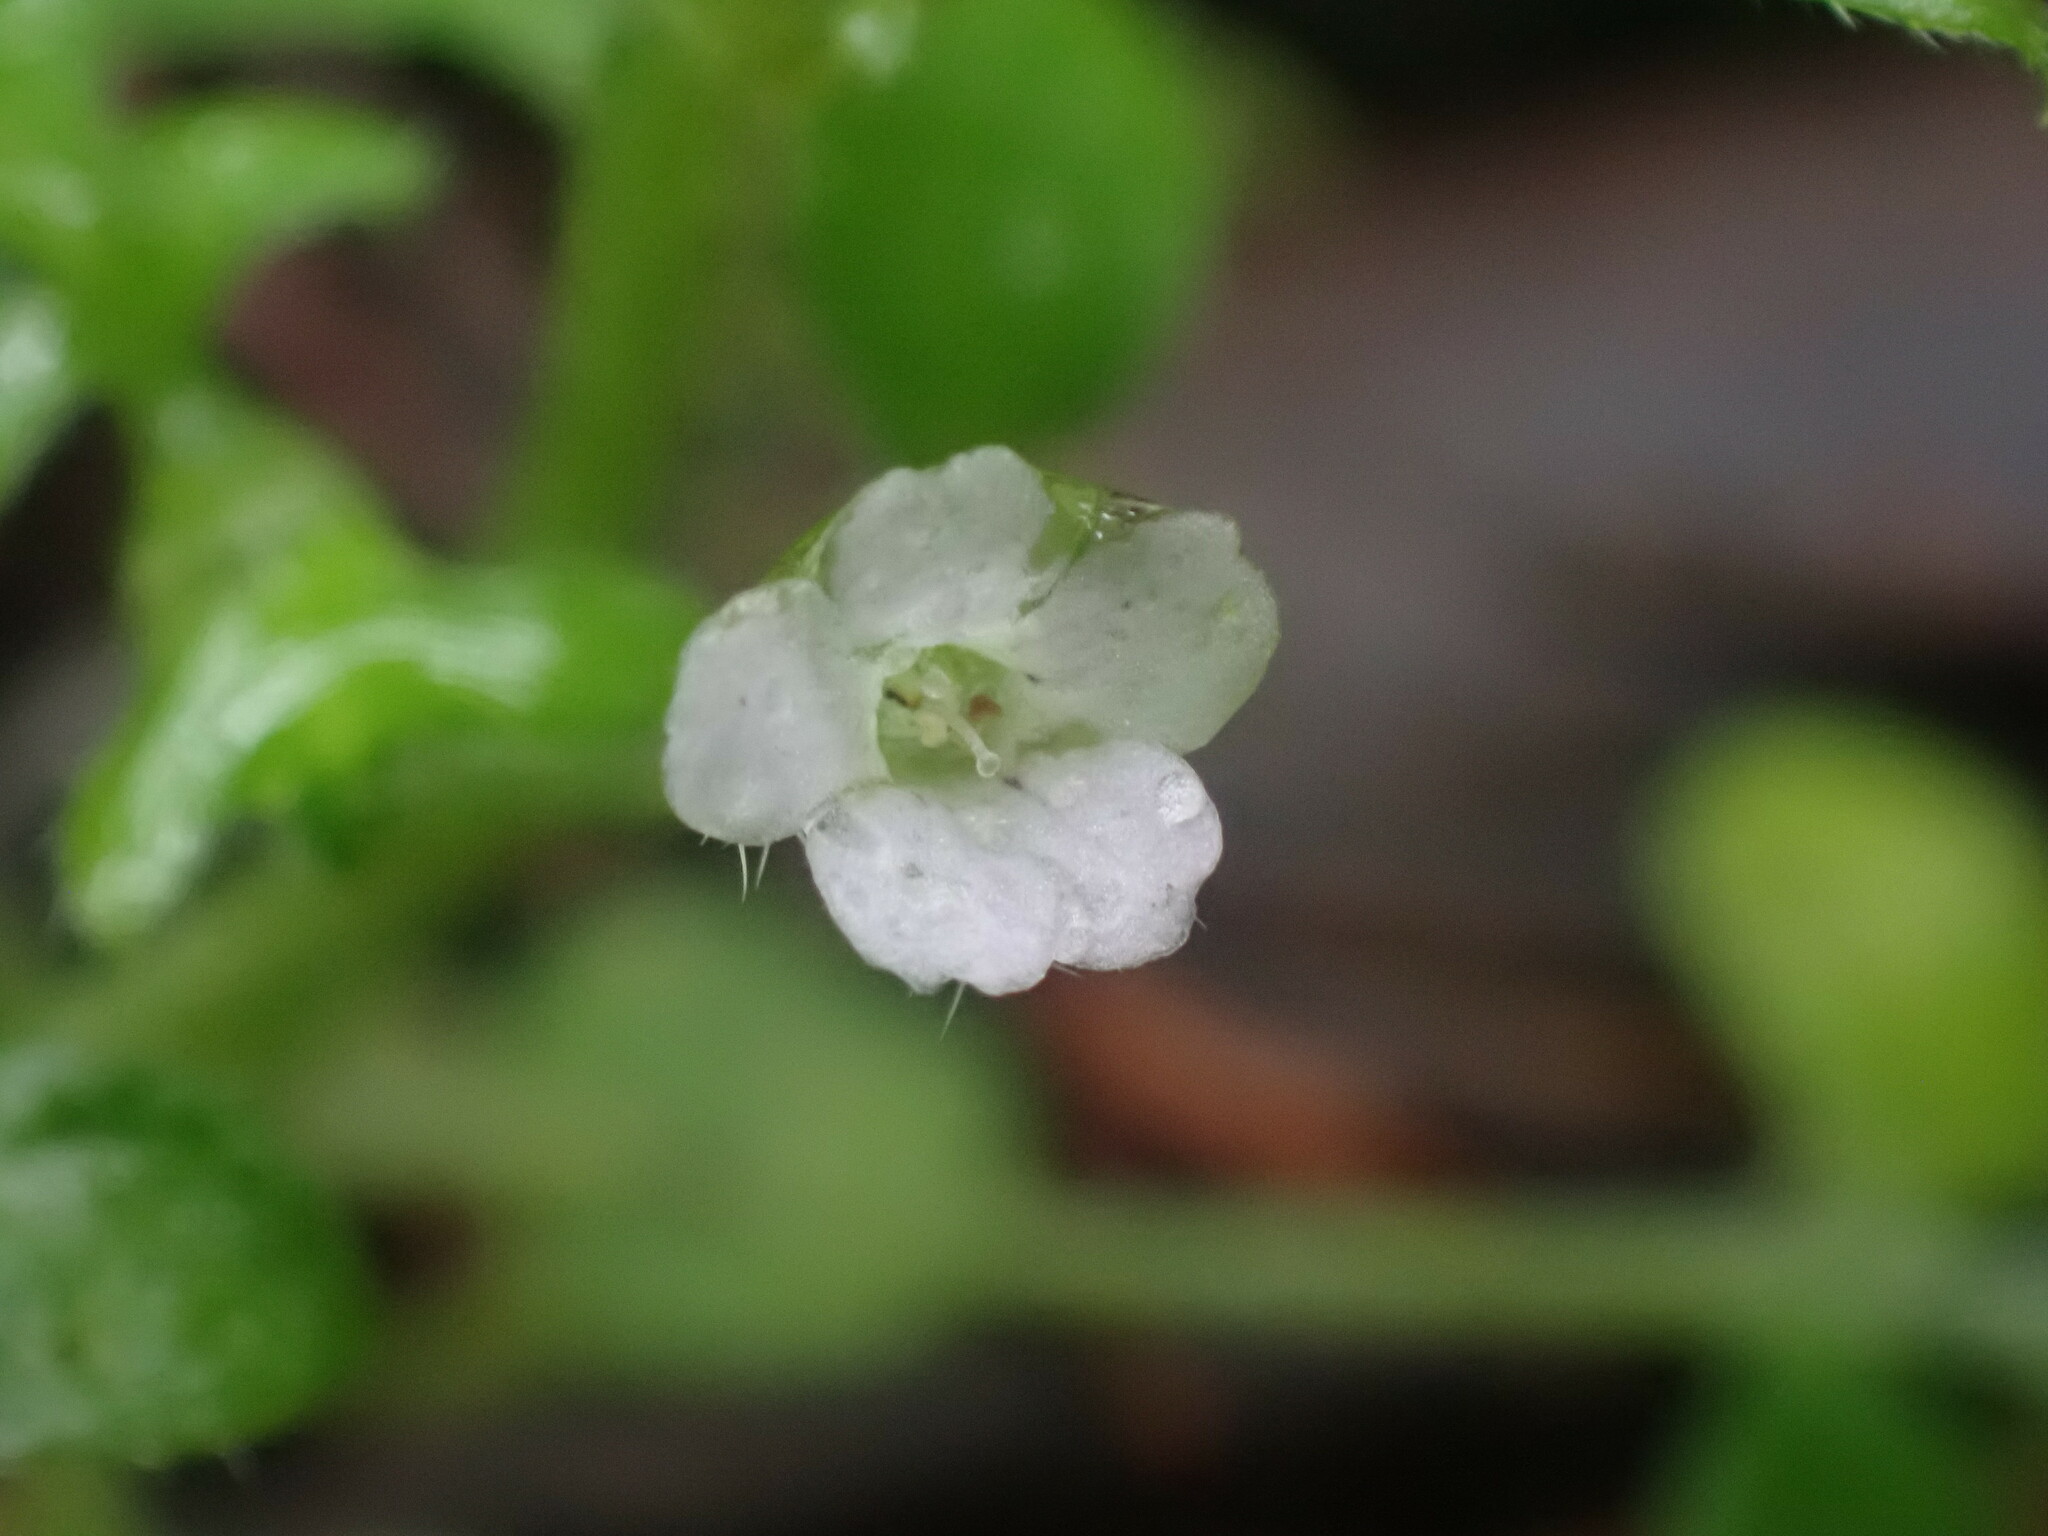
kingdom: Plantae
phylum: Tracheophyta
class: Magnoliopsida
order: Boraginales
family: Hydrophyllaceae
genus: Nemophila
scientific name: Nemophila parviflora
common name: Small-flowered baby-blue-eyes
